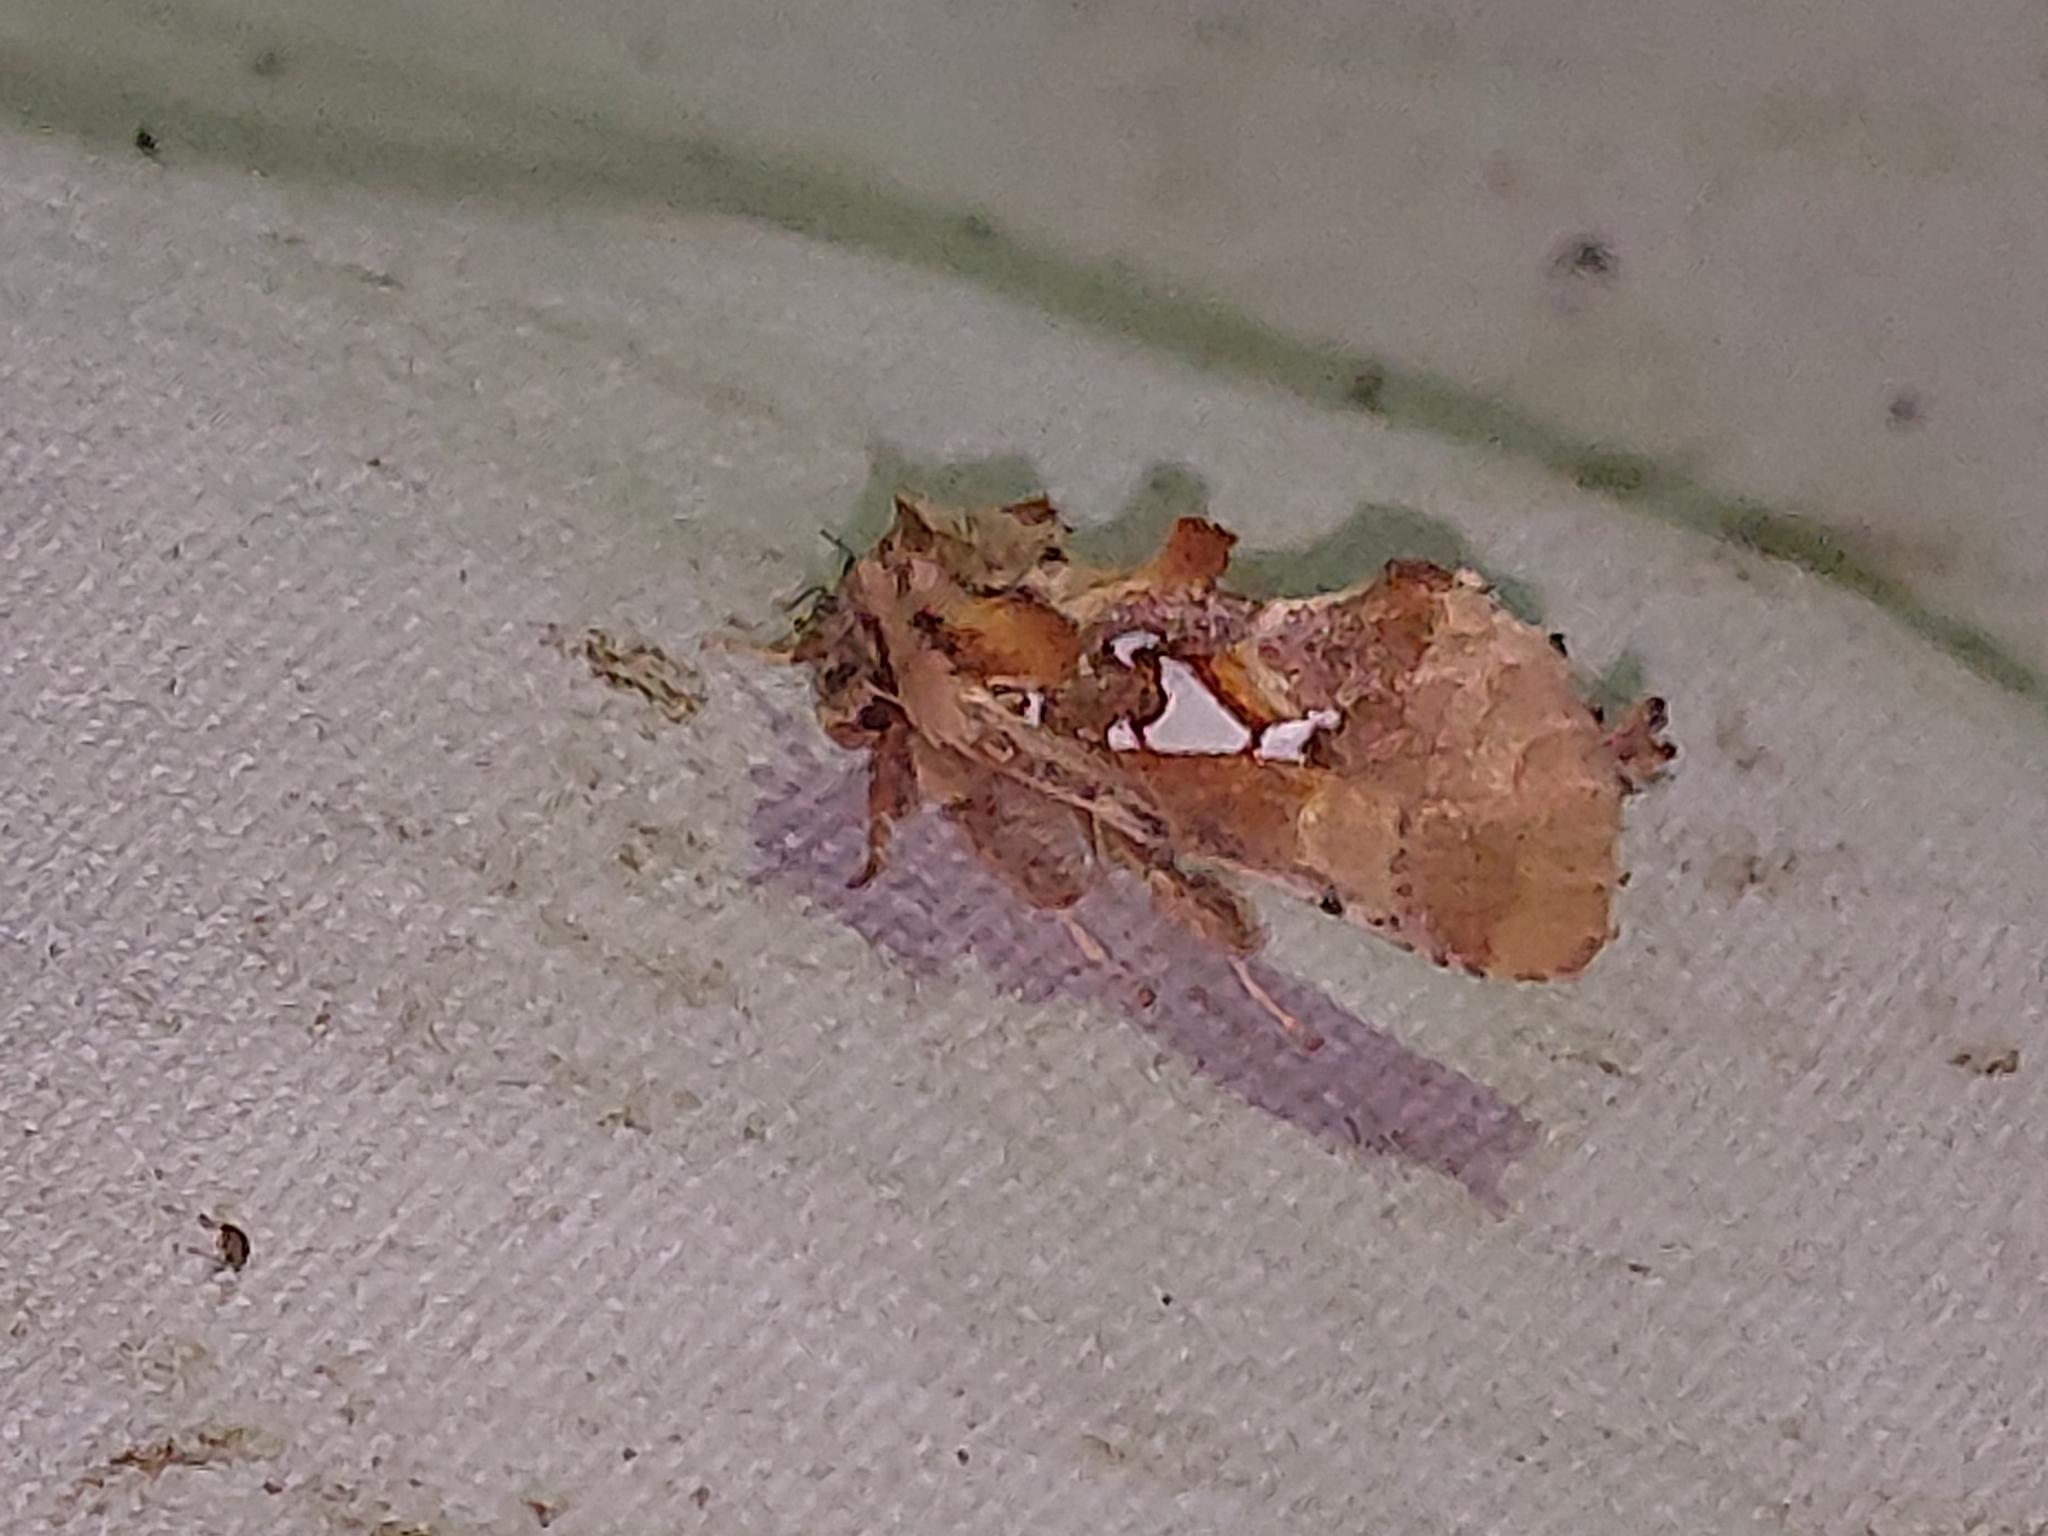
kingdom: Animalia
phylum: Arthropoda
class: Insecta
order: Lepidoptera
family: Notodontidae
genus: Spatalia
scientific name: Spatalia argentina
